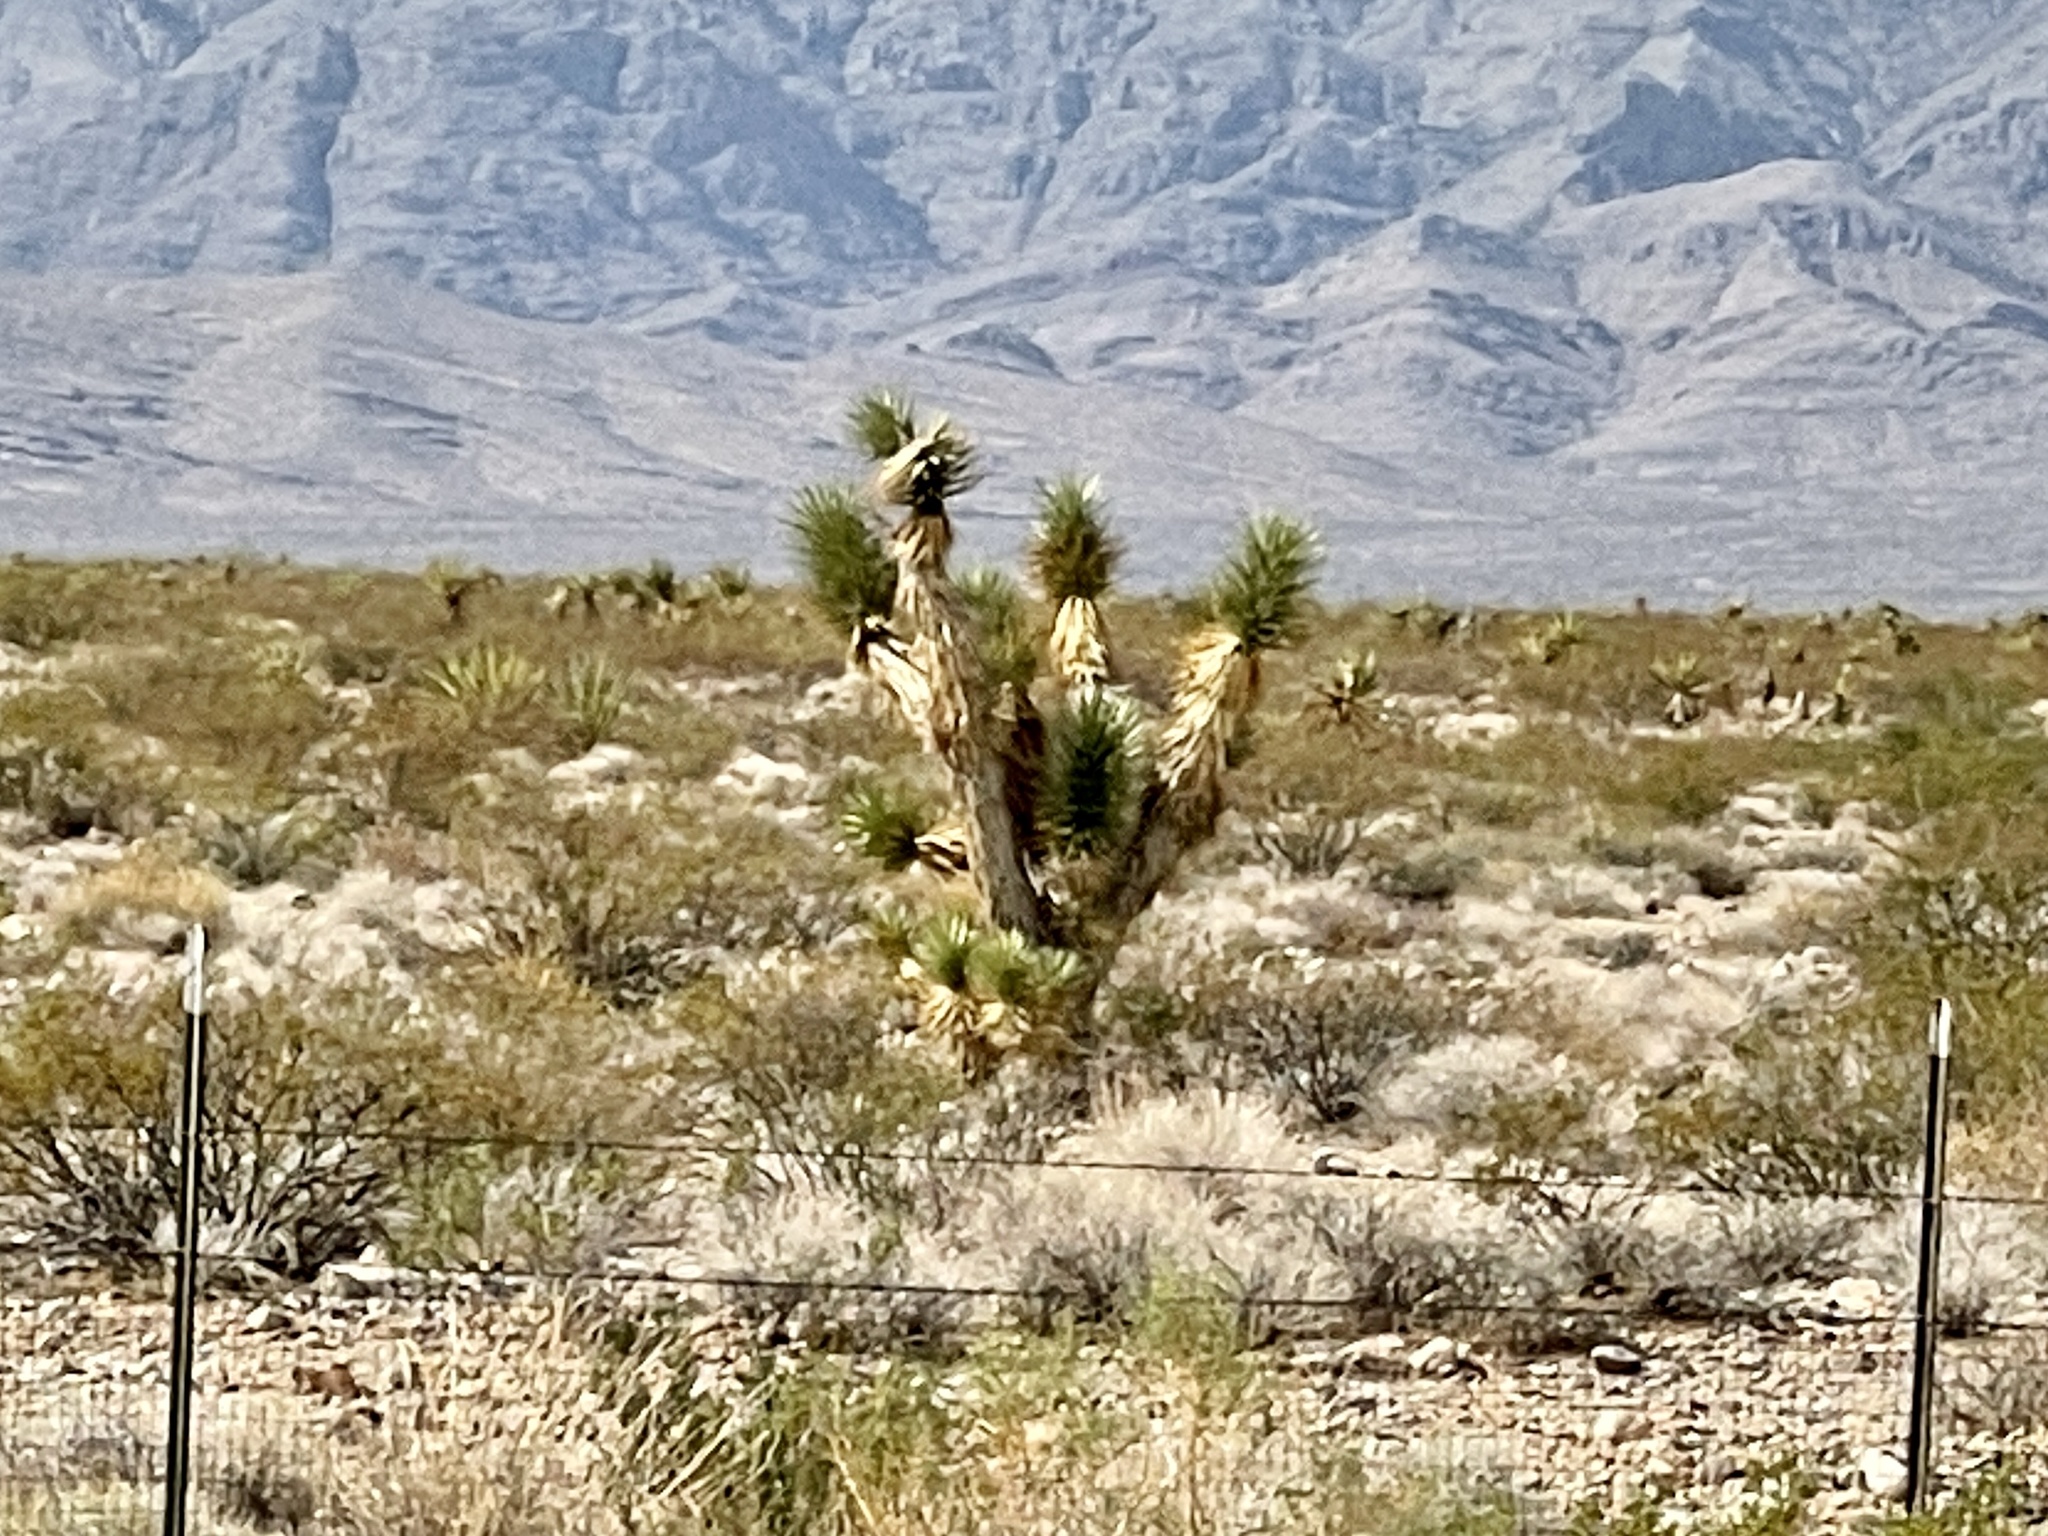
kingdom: Plantae
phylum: Tracheophyta
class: Liliopsida
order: Asparagales
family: Asparagaceae
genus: Yucca
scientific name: Yucca brevifolia
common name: Joshua tree
